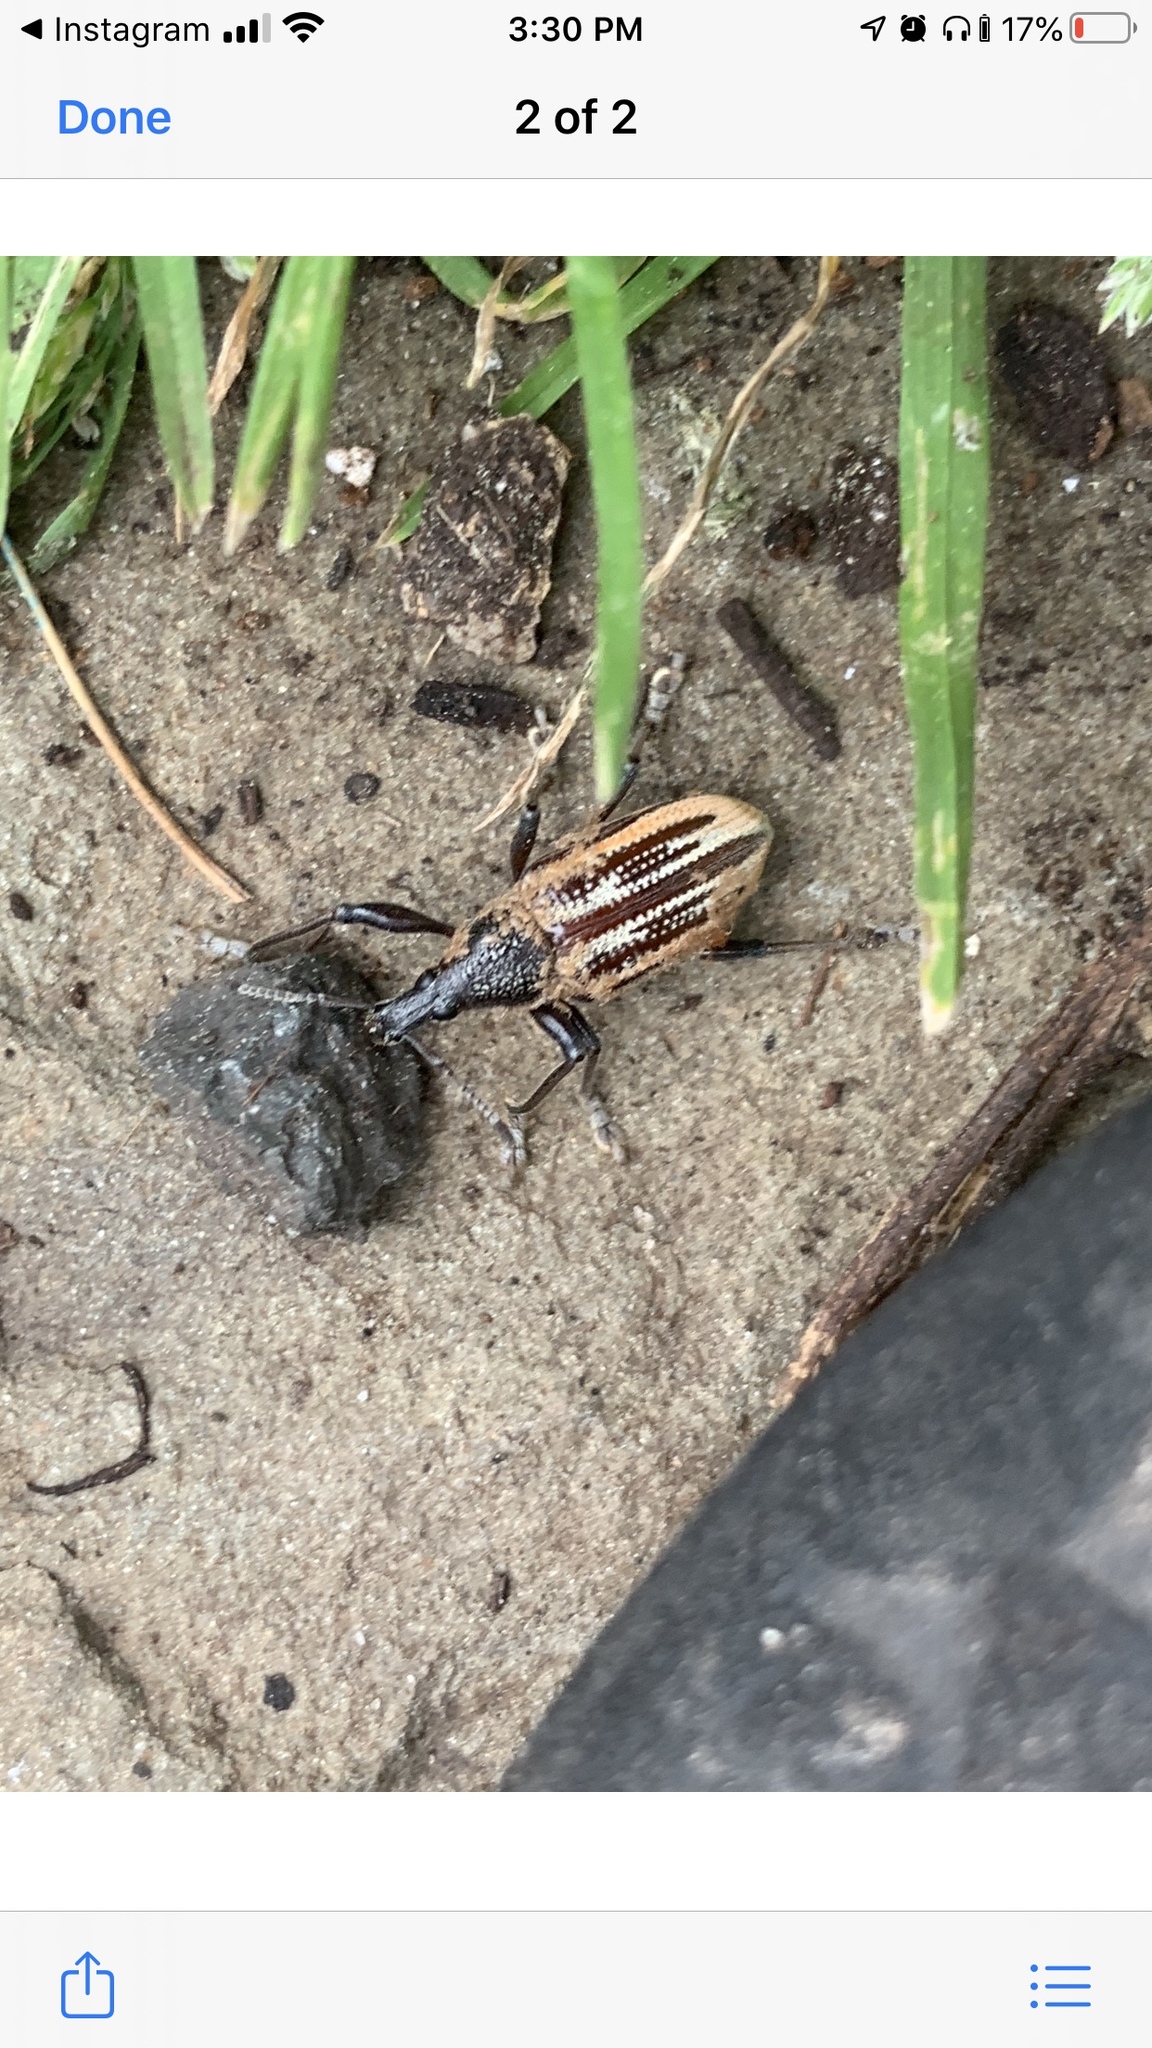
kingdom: Animalia
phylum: Arthropoda
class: Insecta
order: Coleoptera
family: Curculionidae
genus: Diaprepes
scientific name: Diaprepes abbreviatus
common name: Root weevil
